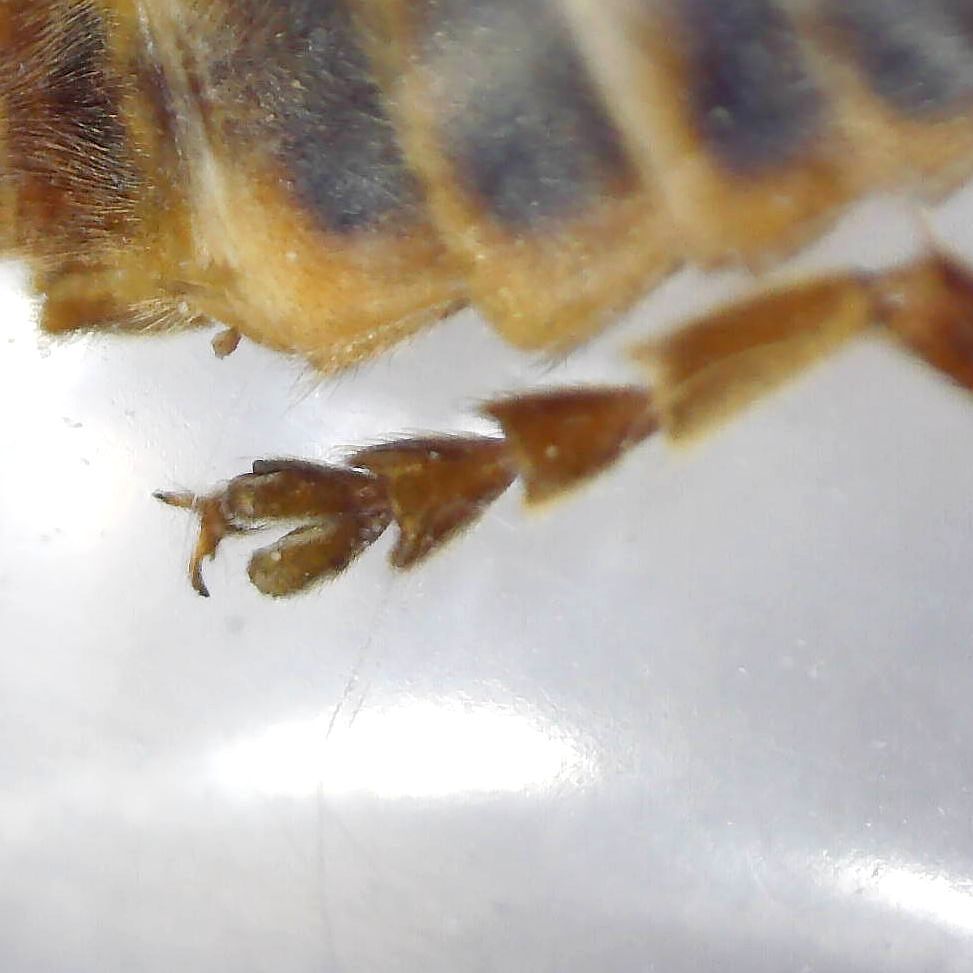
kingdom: Animalia
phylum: Arthropoda
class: Insecta
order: Coleoptera
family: Cantharidae
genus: Cantharis
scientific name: Cantharis rufa
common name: Red-spotted soldier beetle
